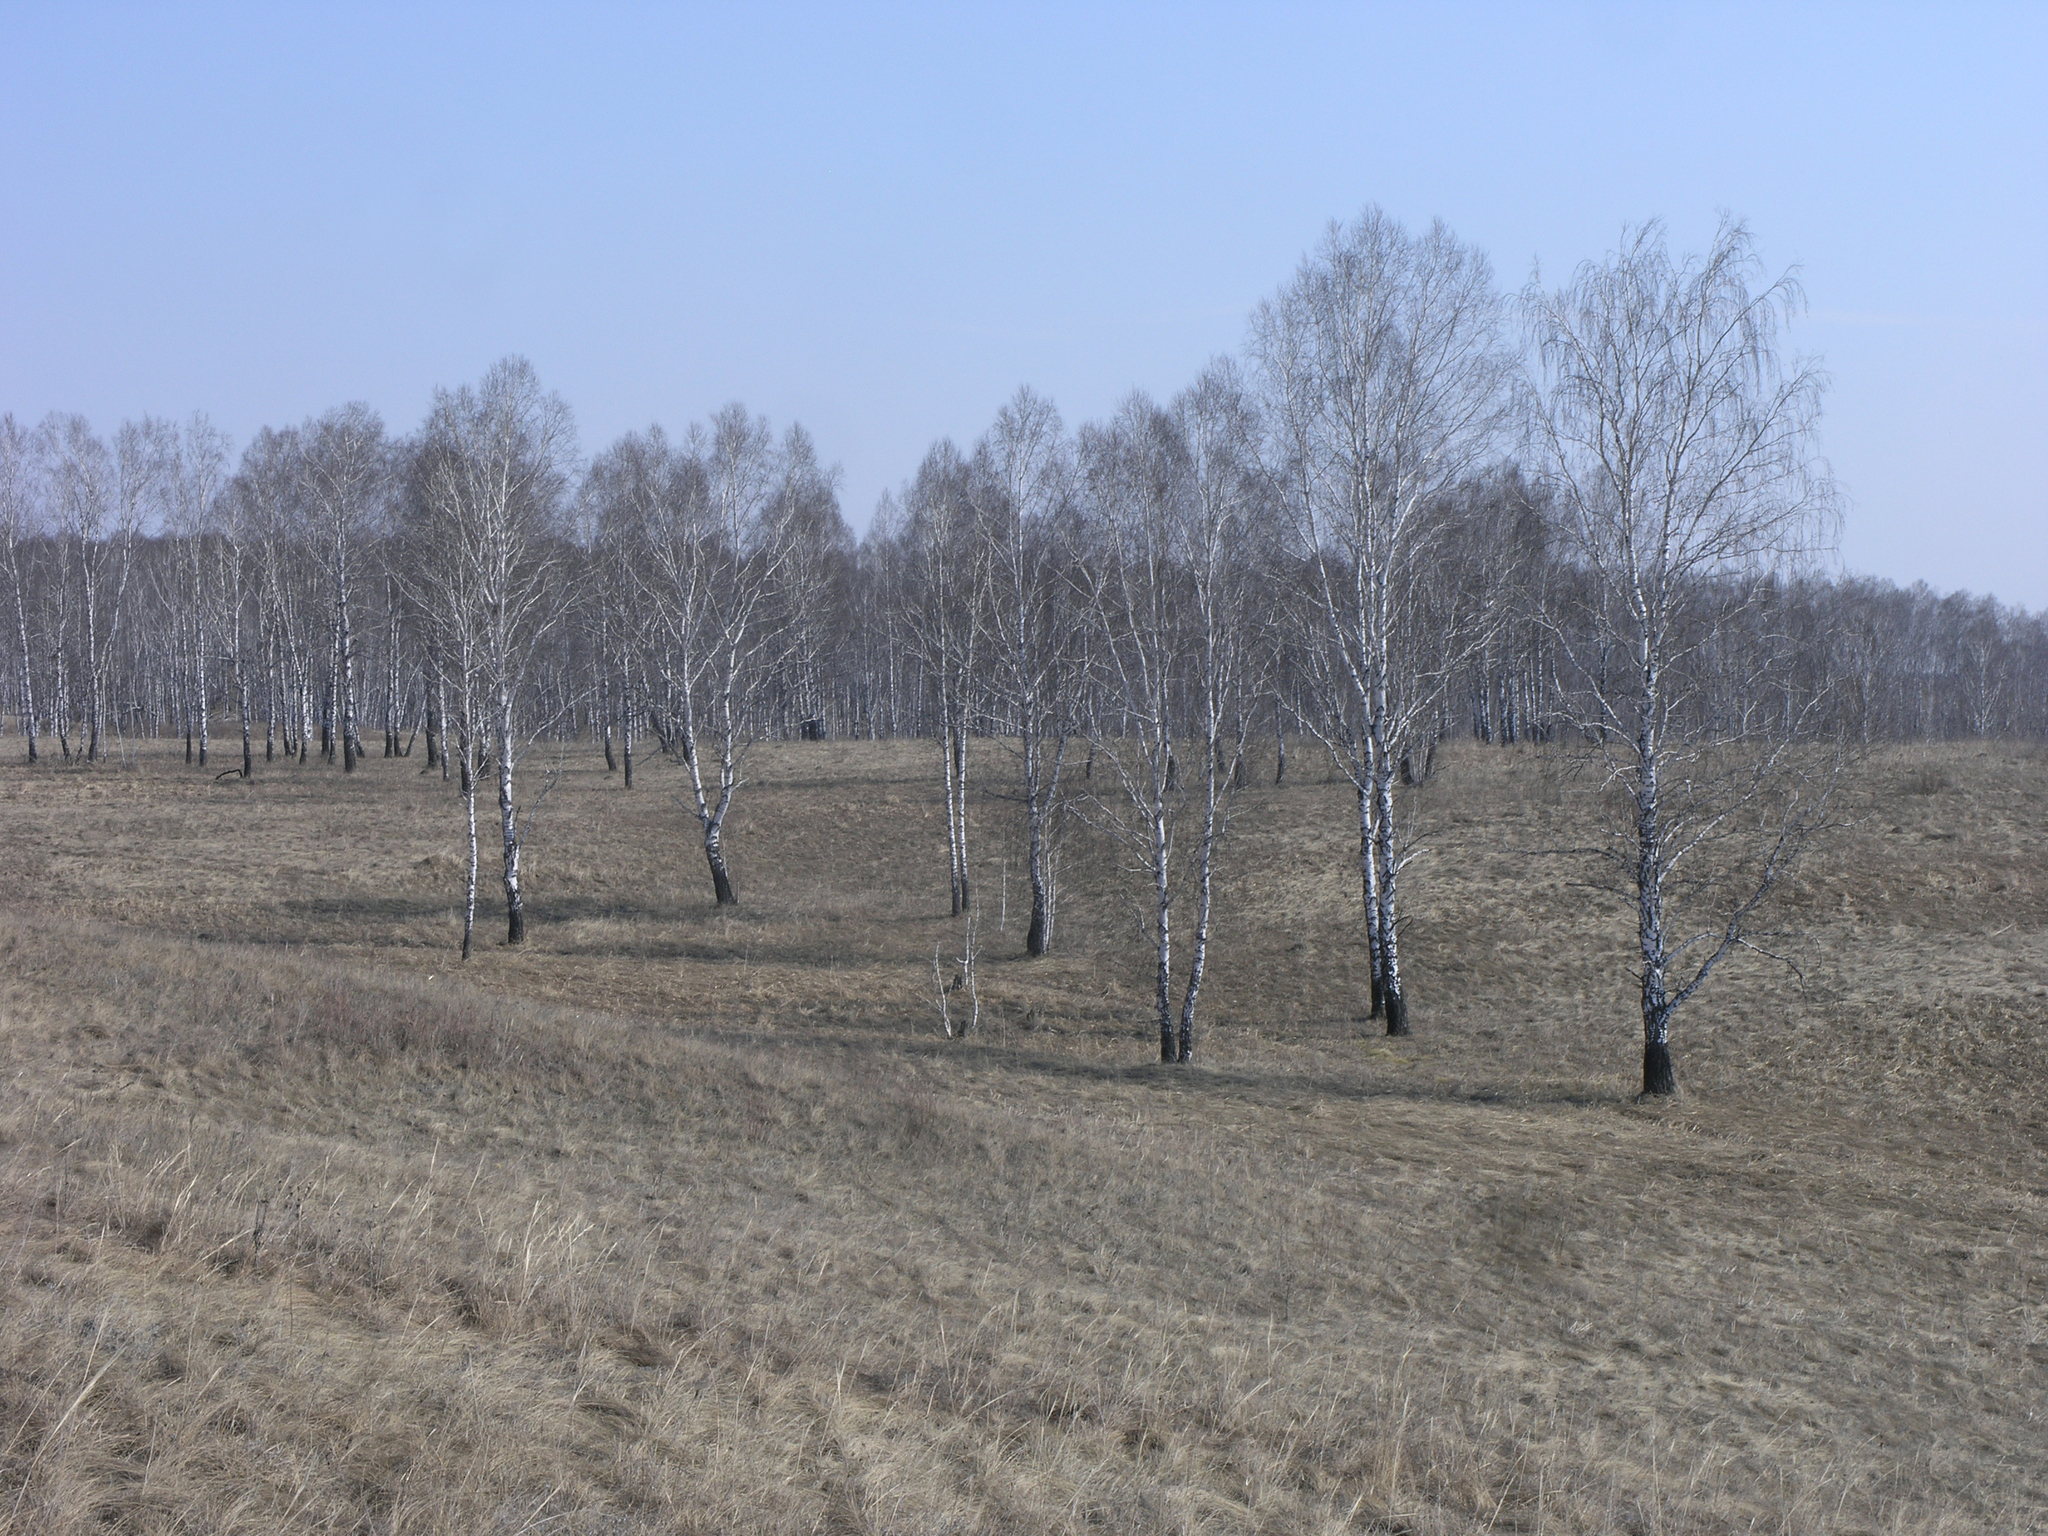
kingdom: Plantae
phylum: Tracheophyta
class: Magnoliopsida
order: Fagales
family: Betulaceae
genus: Betula
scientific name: Betula pendula
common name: Silver birch
